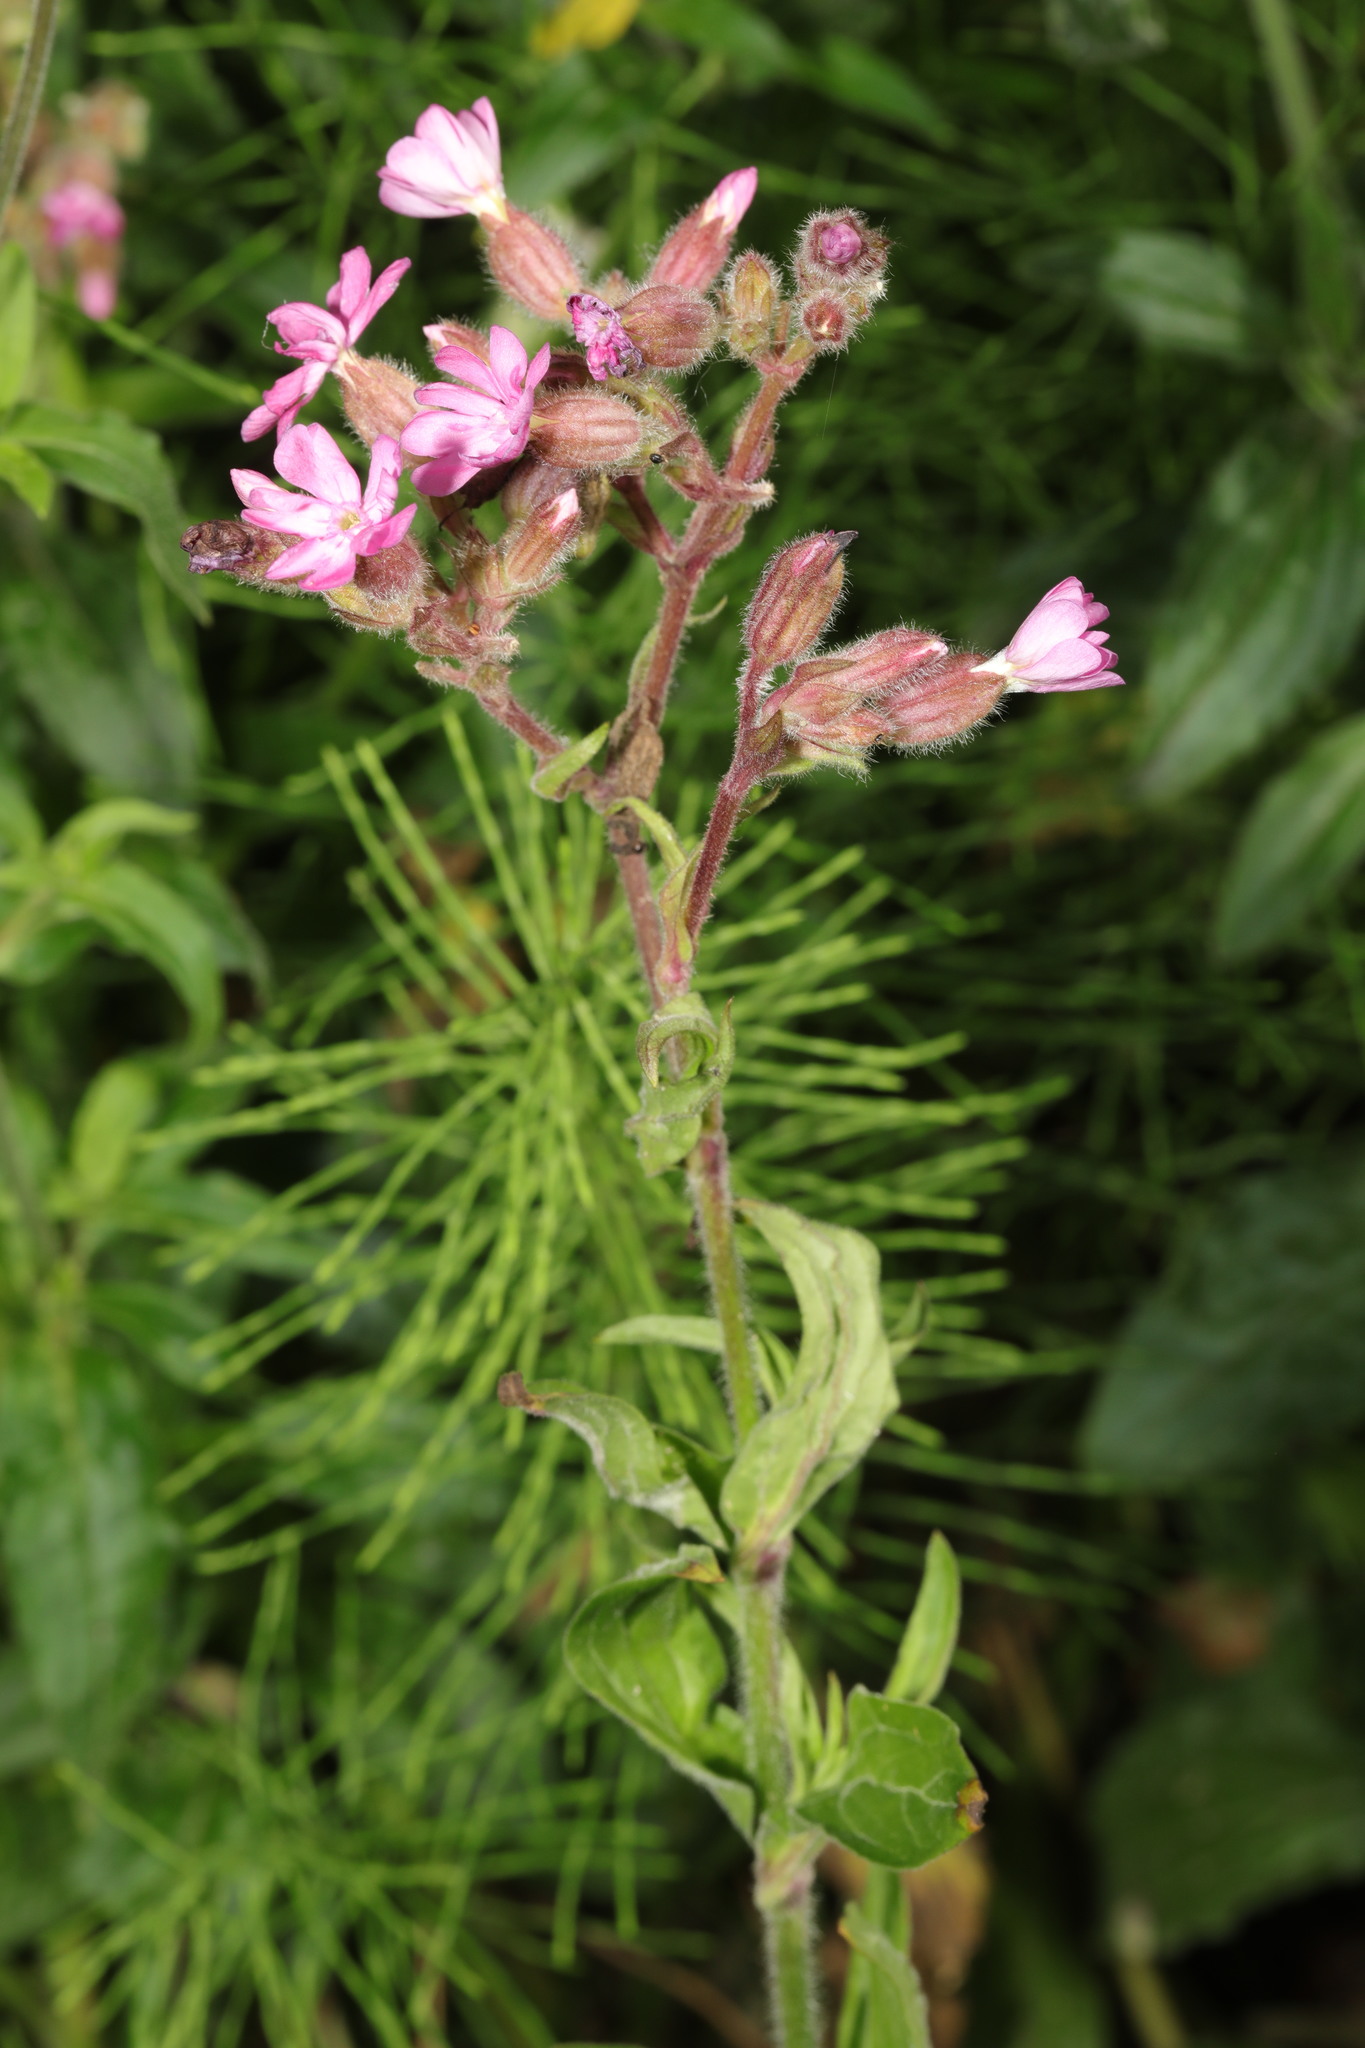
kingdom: Plantae
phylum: Tracheophyta
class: Magnoliopsida
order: Caryophyllales
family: Caryophyllaceae
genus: Silene
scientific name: Silene dioica
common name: Red campion
